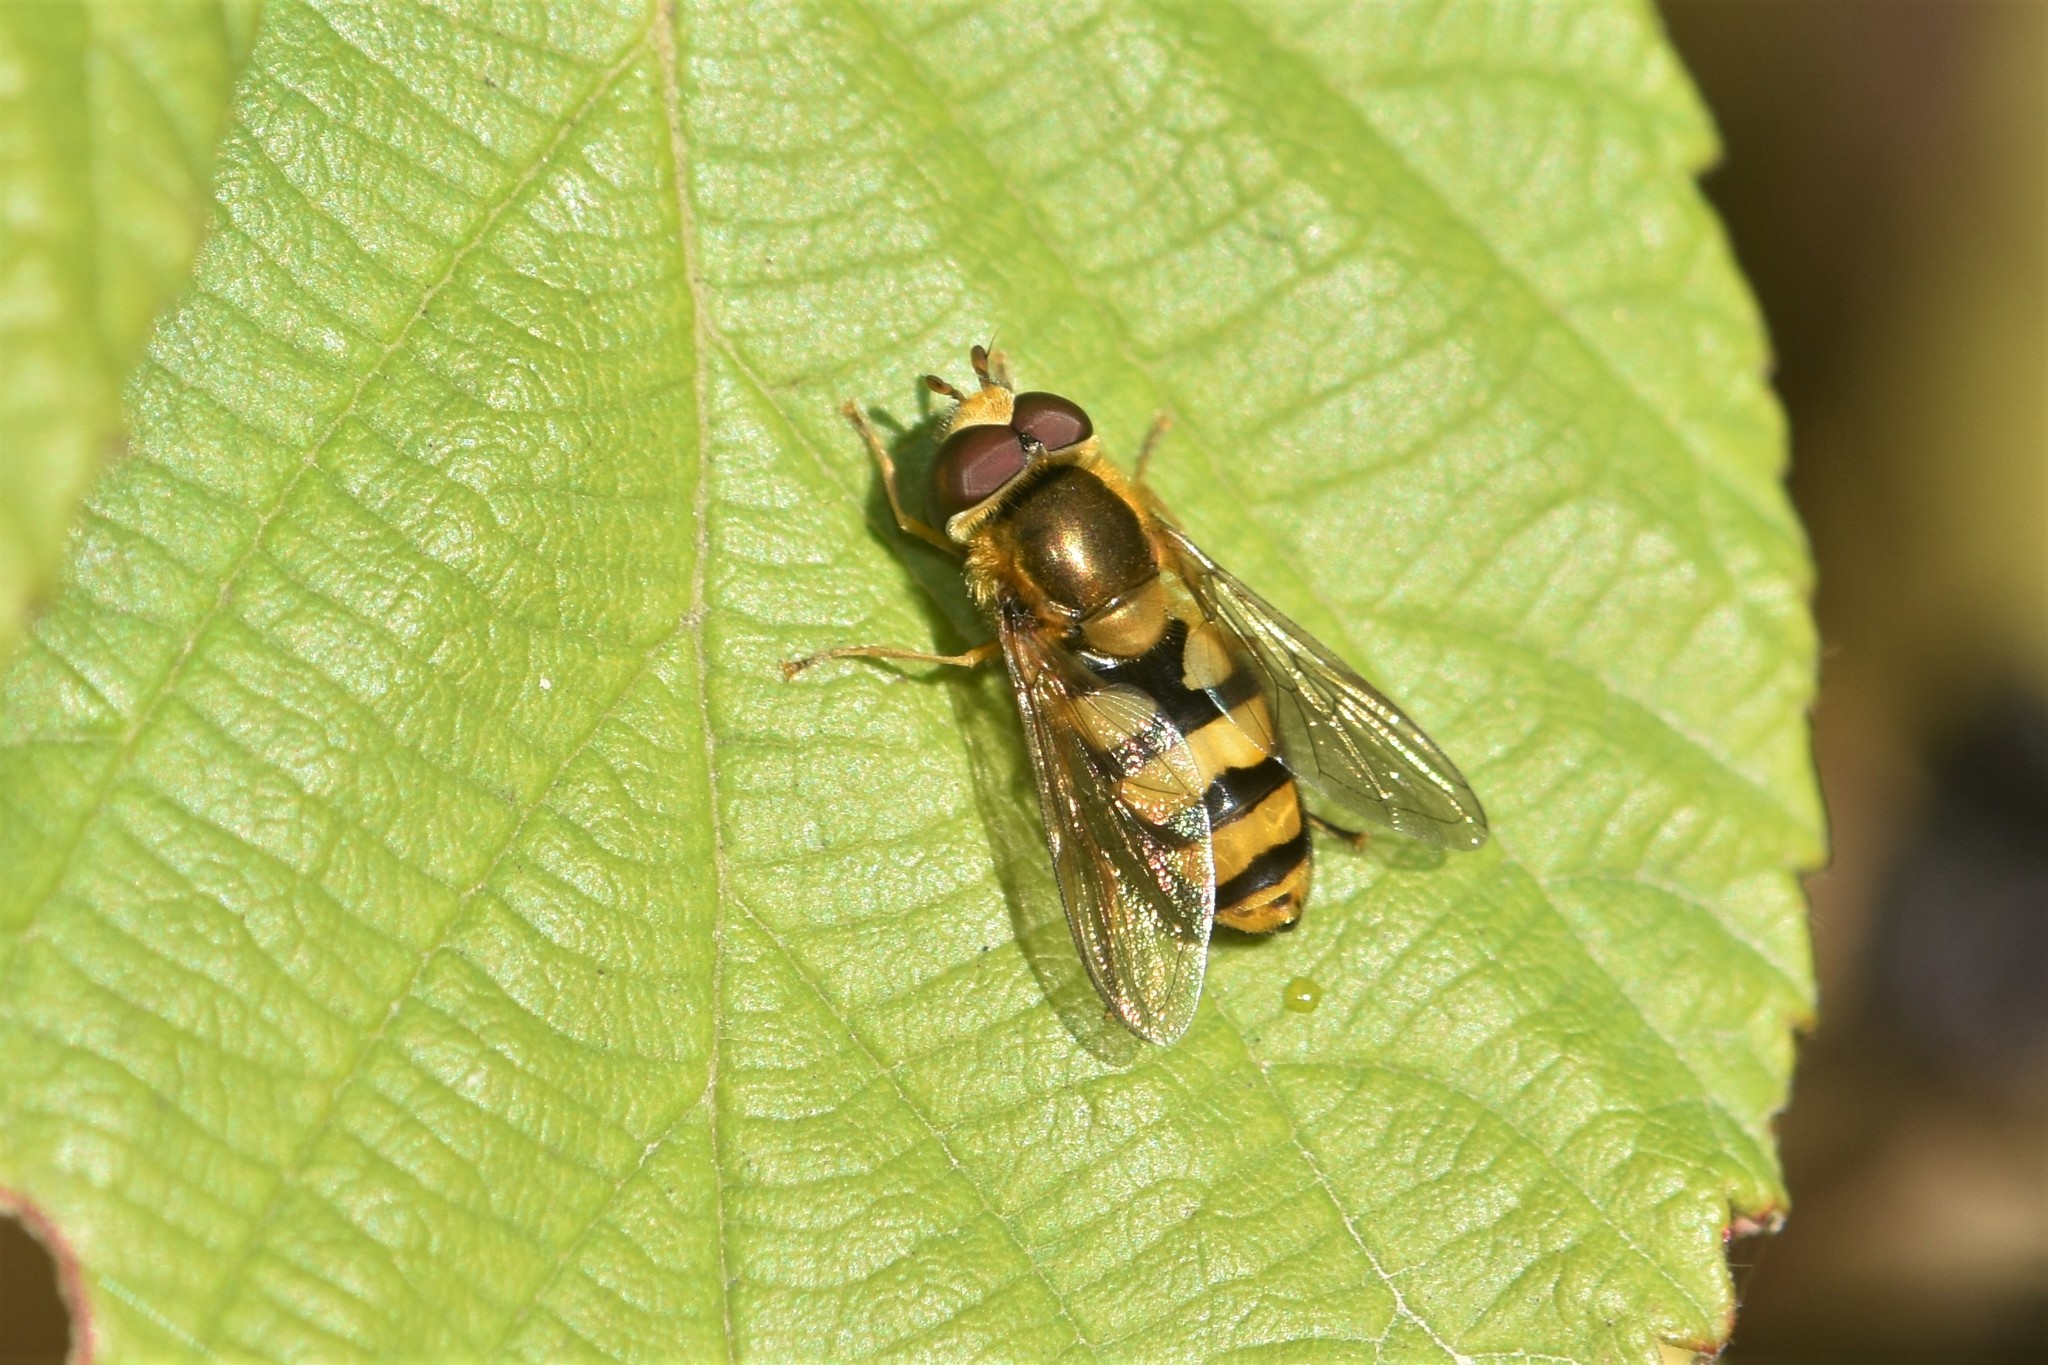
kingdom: Animalia
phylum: Arthropoda
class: Insecta
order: Diptera
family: Syrphidae
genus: Eupeodes
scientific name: Eupeodes latifasciatus
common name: Variable aphideater
